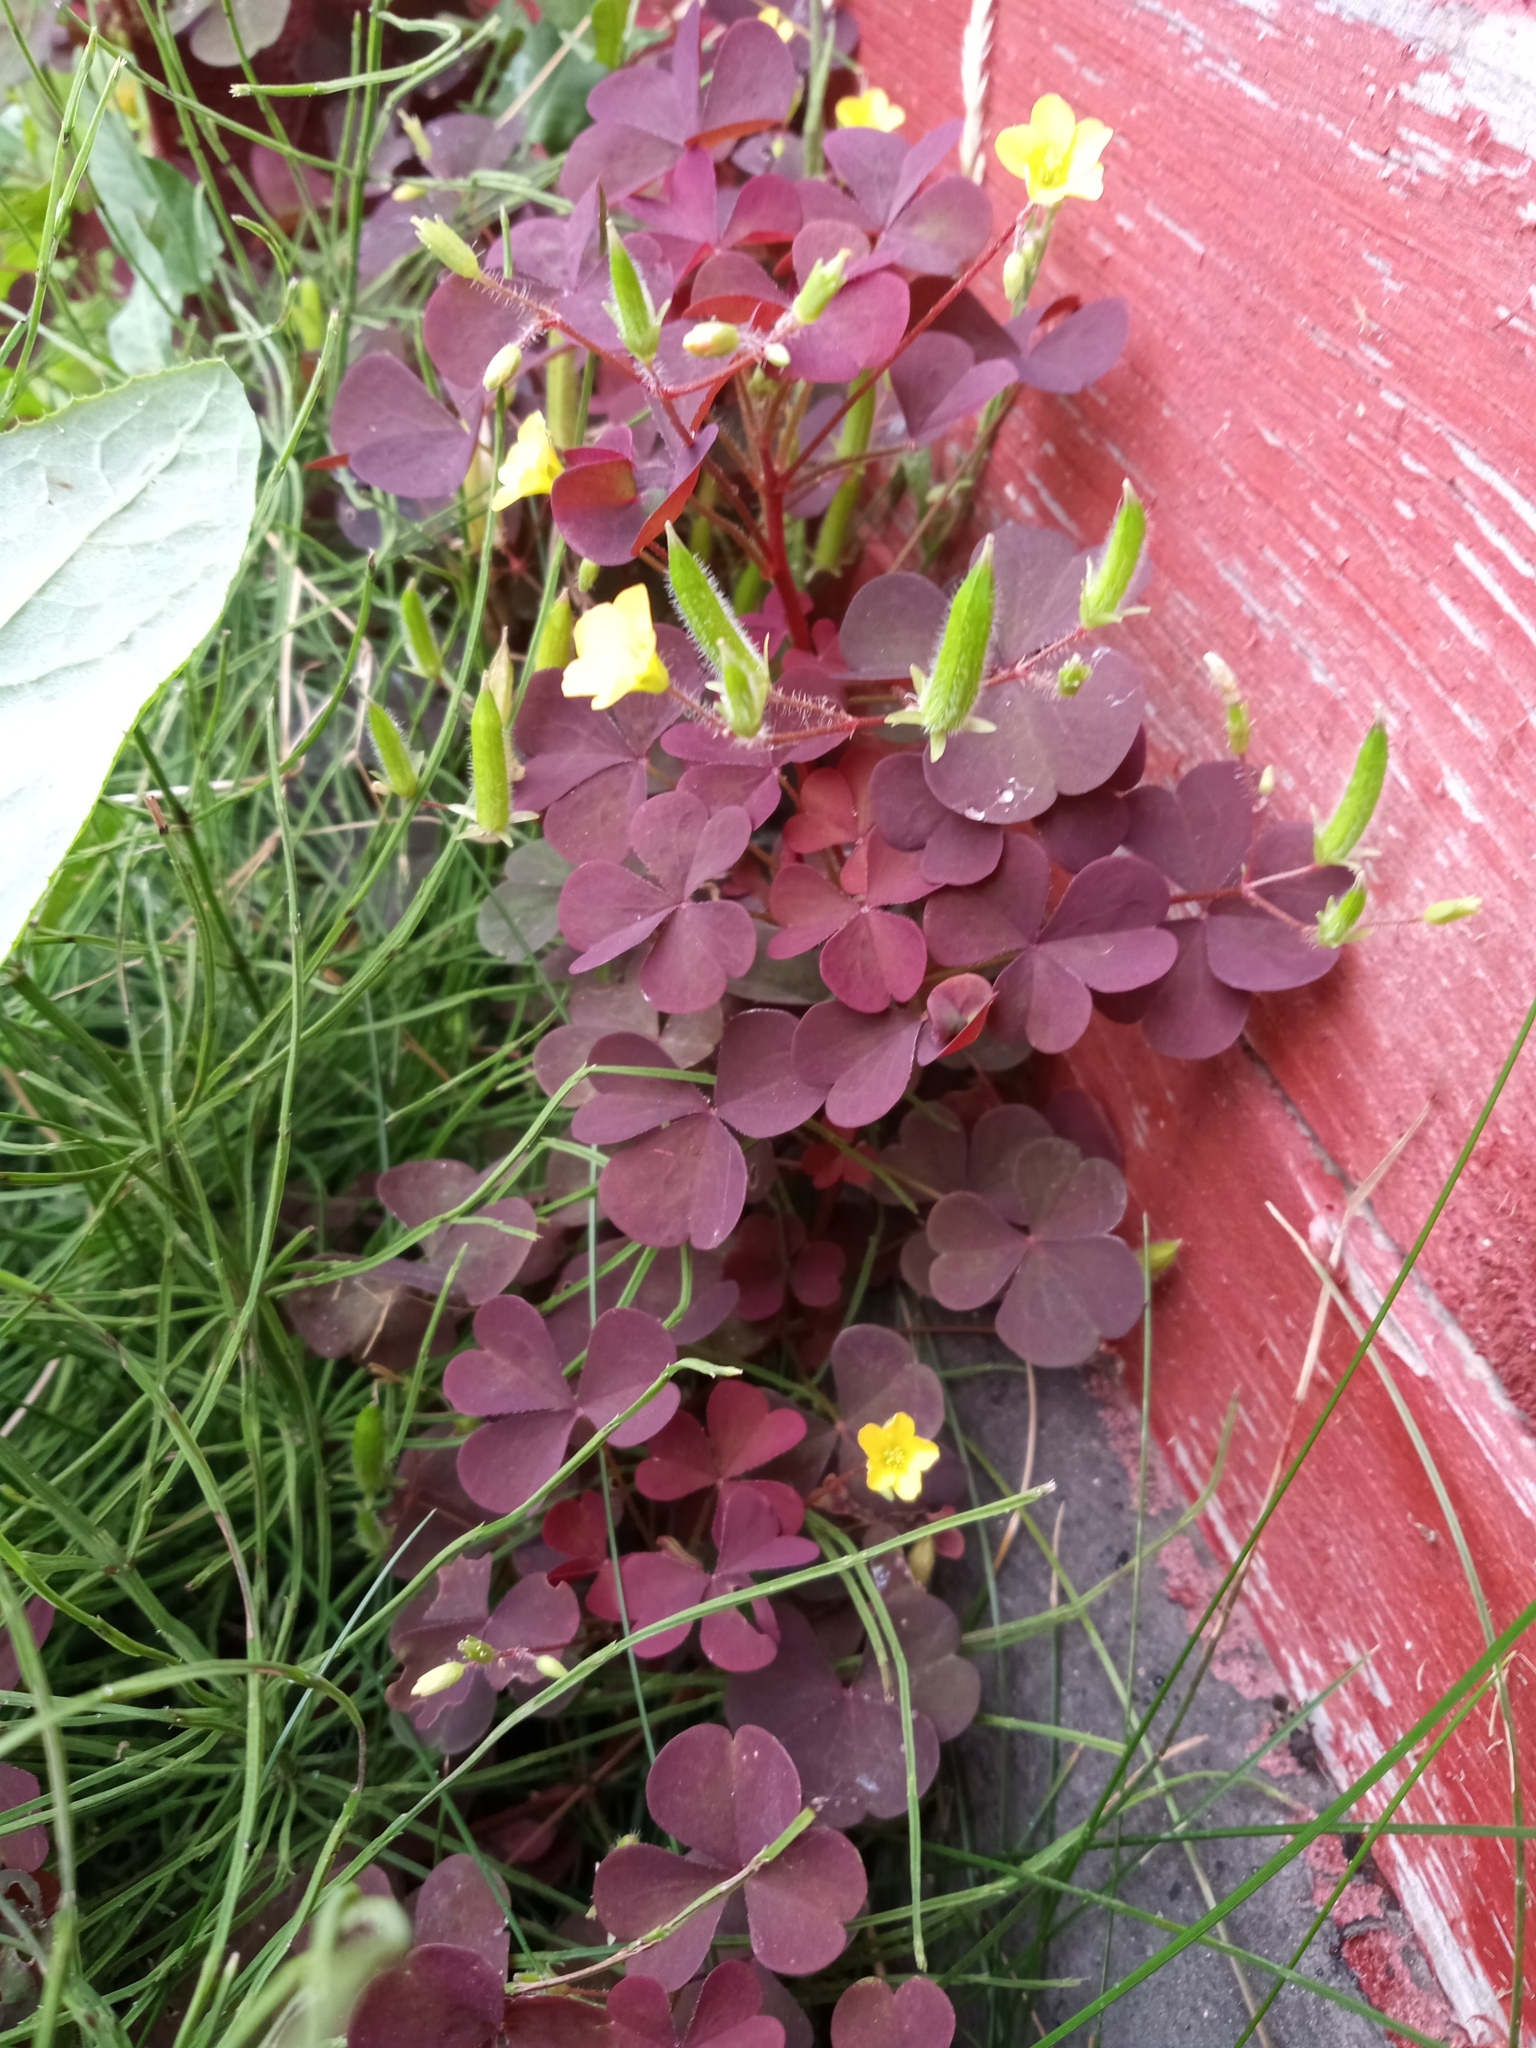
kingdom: Plantae
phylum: Tracheophyta
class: Magnoliopsida
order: Oxalidales
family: Oxalidaceae
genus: Oxalis
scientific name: Oxalis stricta
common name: Upright yellow-sorrel
